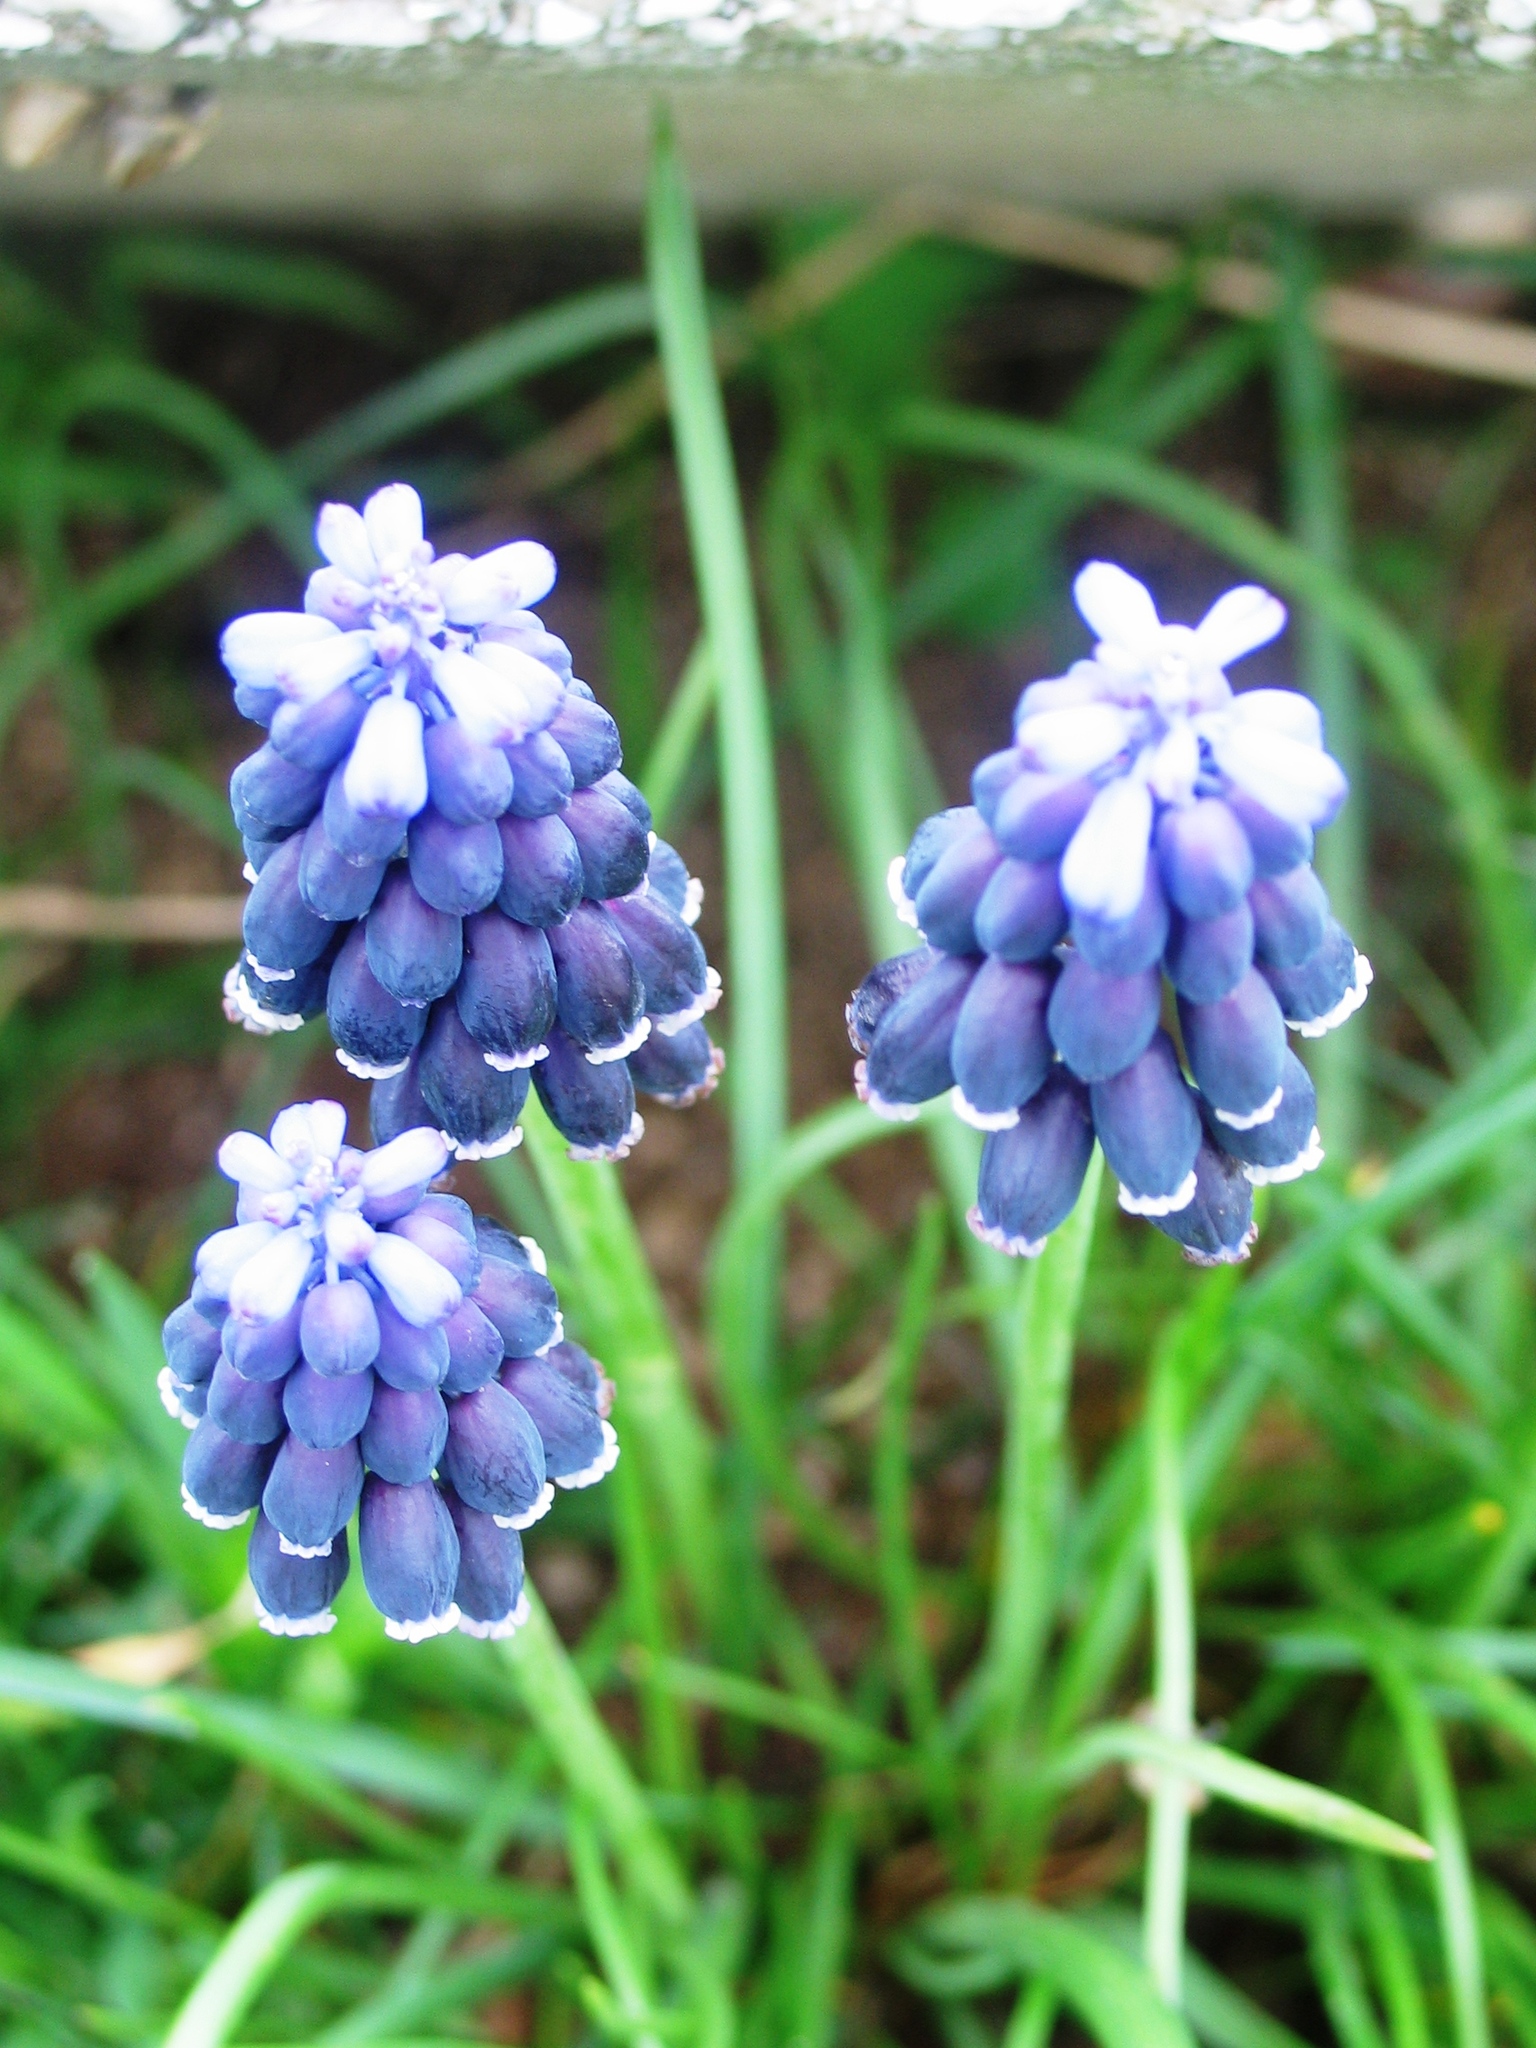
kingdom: Plantae
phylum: Tracheophyta
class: Liliopsida
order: Asparagales
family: Asparagaceae
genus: Muscari
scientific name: Muscari neglectum
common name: Grape-hyacinth
